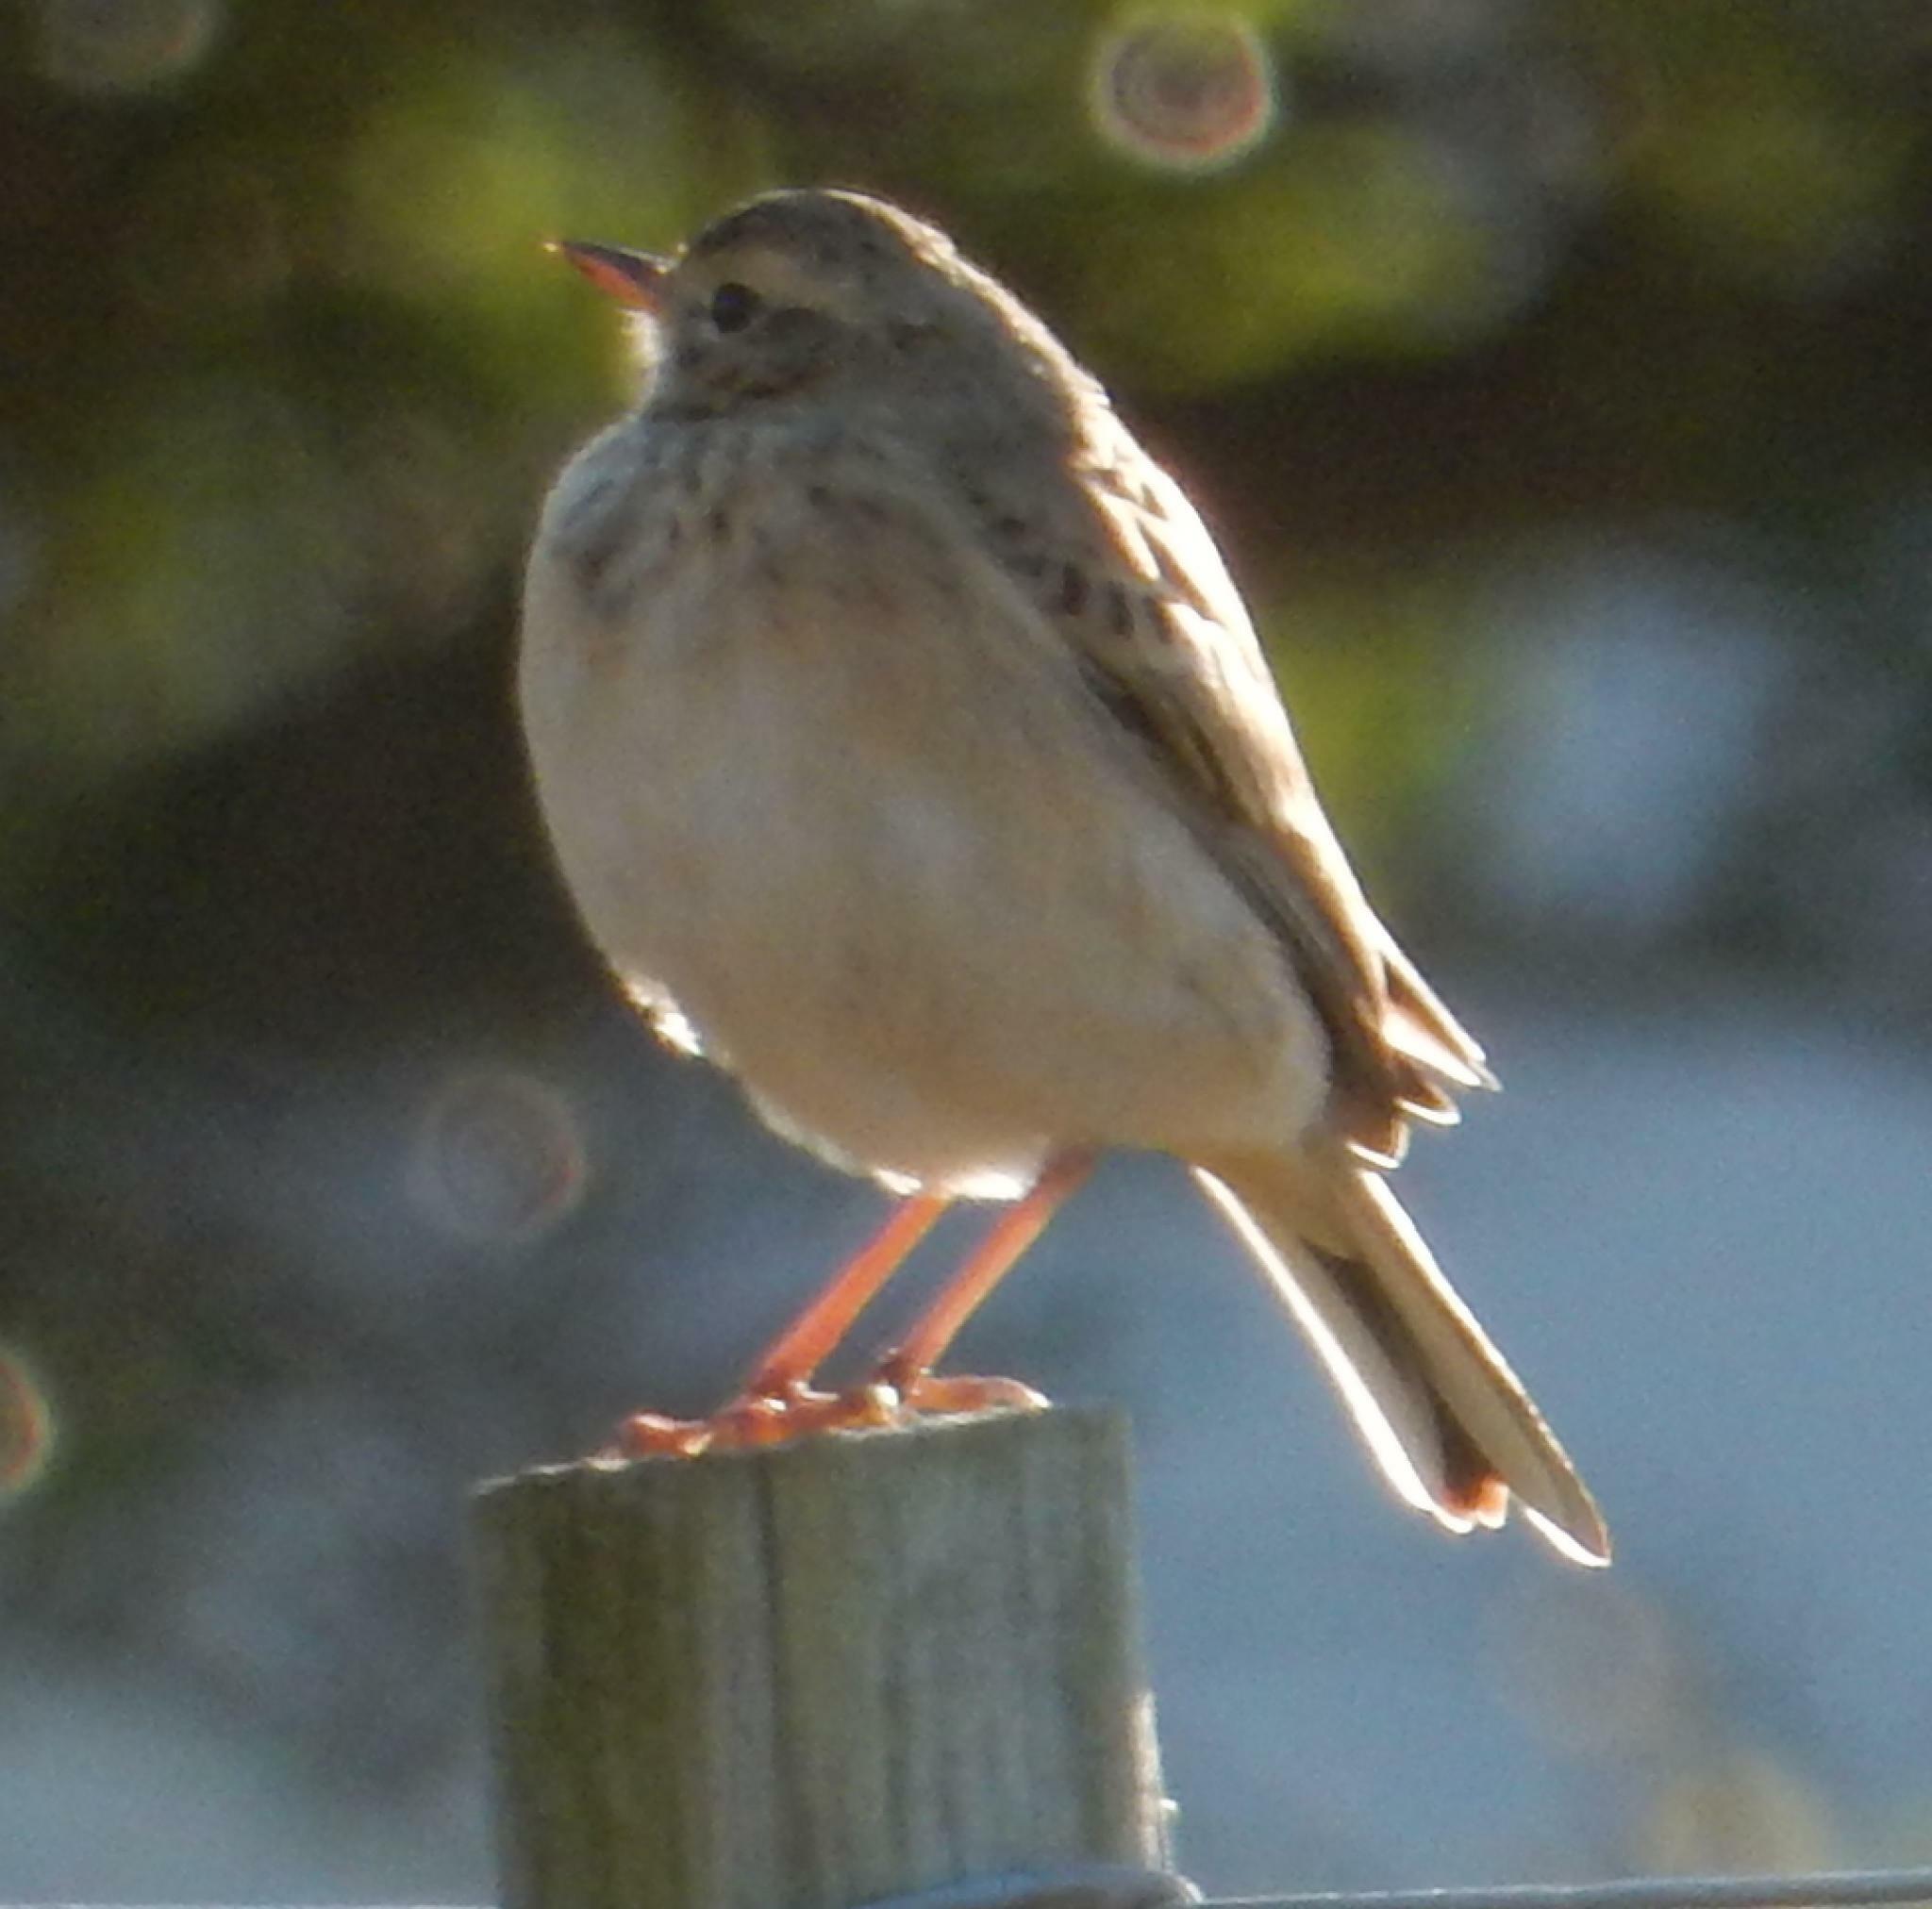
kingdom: Animalia
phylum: Chordata
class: Aves
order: Passeriformes
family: Motacillidae
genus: Anthus
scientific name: Anthus cinnamomeus
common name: African pipit
